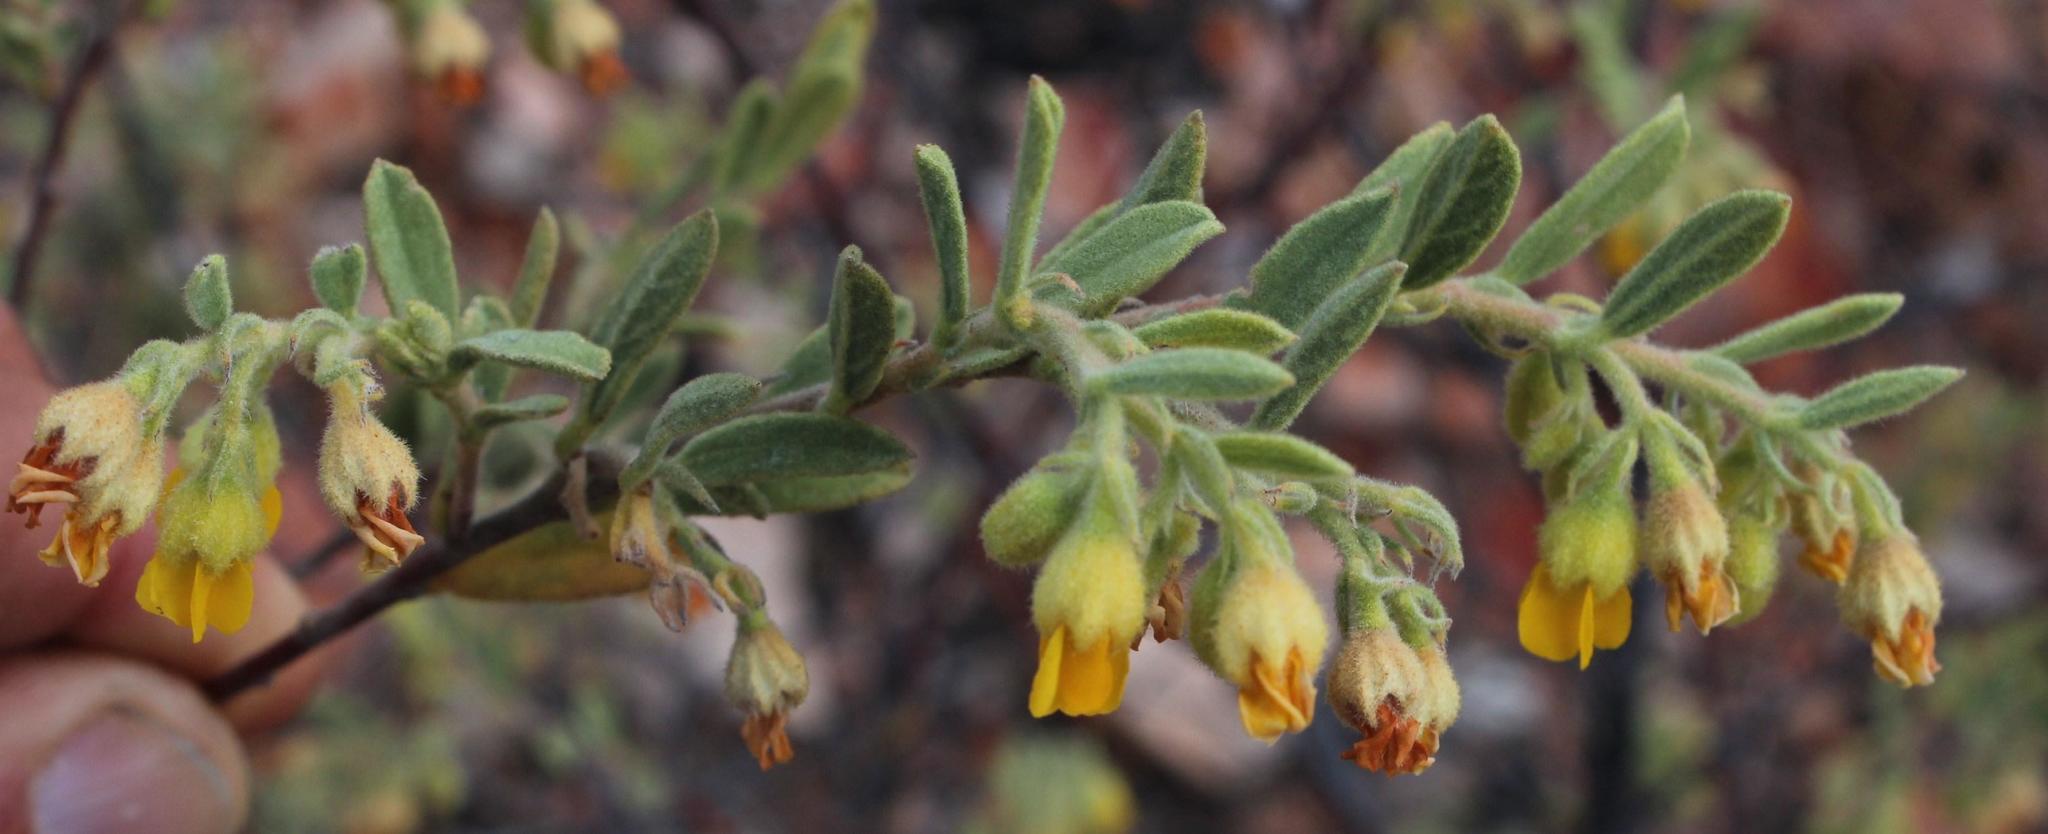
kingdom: Plantae
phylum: Tracheophyta
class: Magnoliopsida
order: Malvales
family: Malvaceae
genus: Hermannia
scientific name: Hermannia odorata
